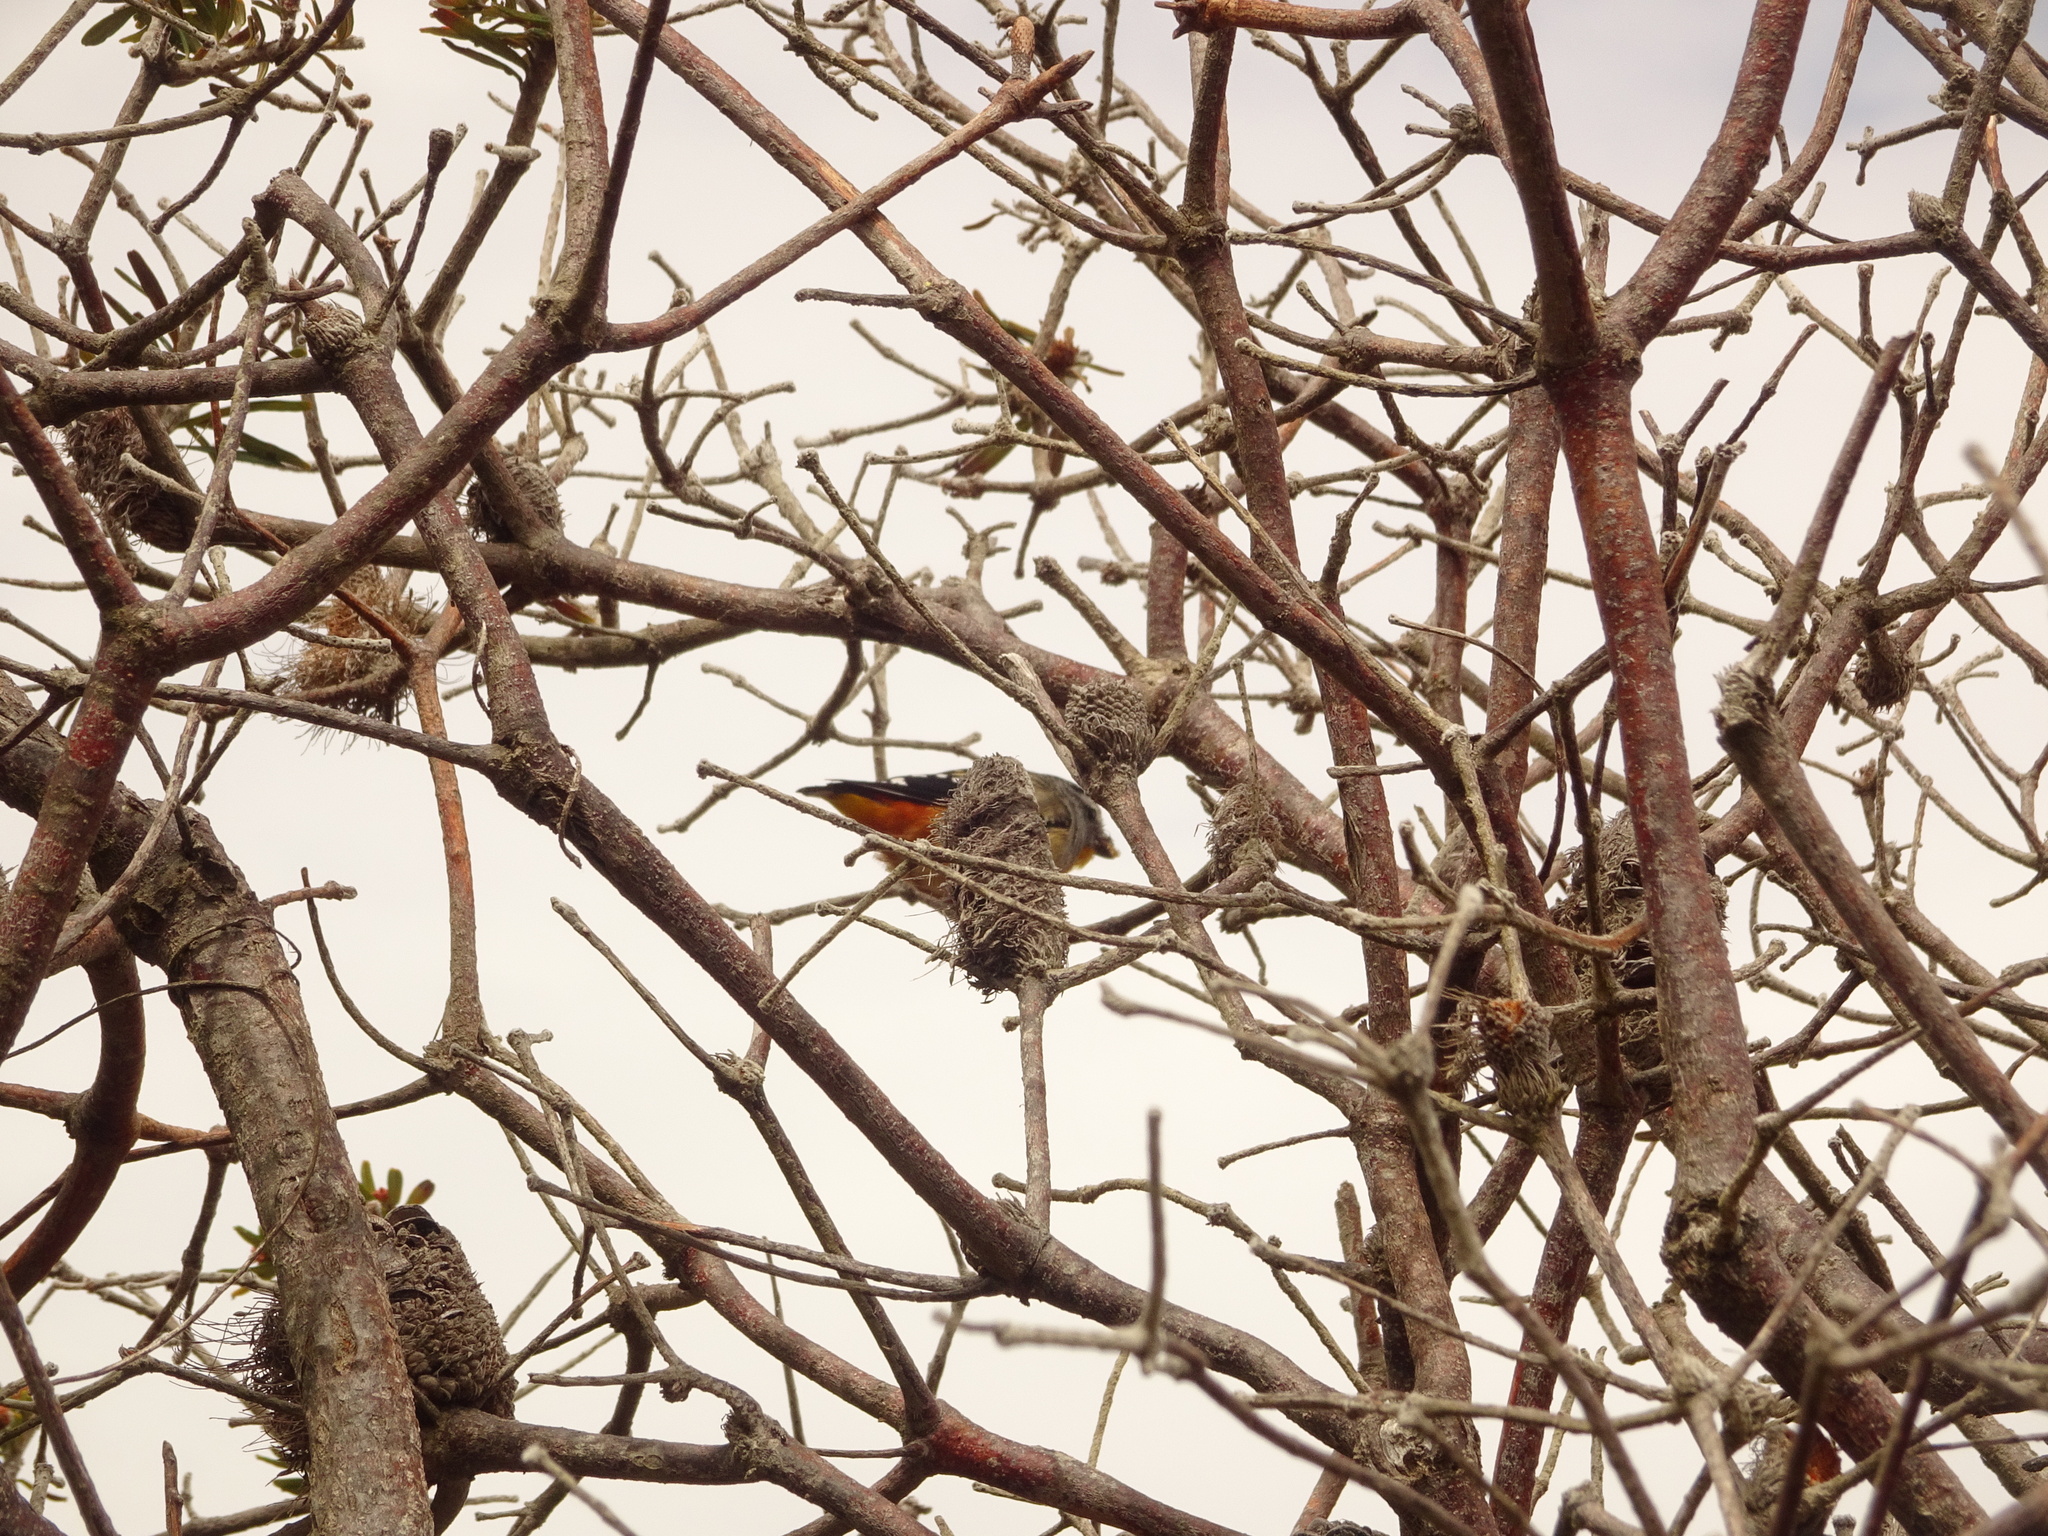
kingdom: Animalia
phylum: Chordata
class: Aves
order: Passeriformes
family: Pardalotidae
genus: Pardalotus
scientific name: Pardalotus punctatus
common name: Spotted pardalote
